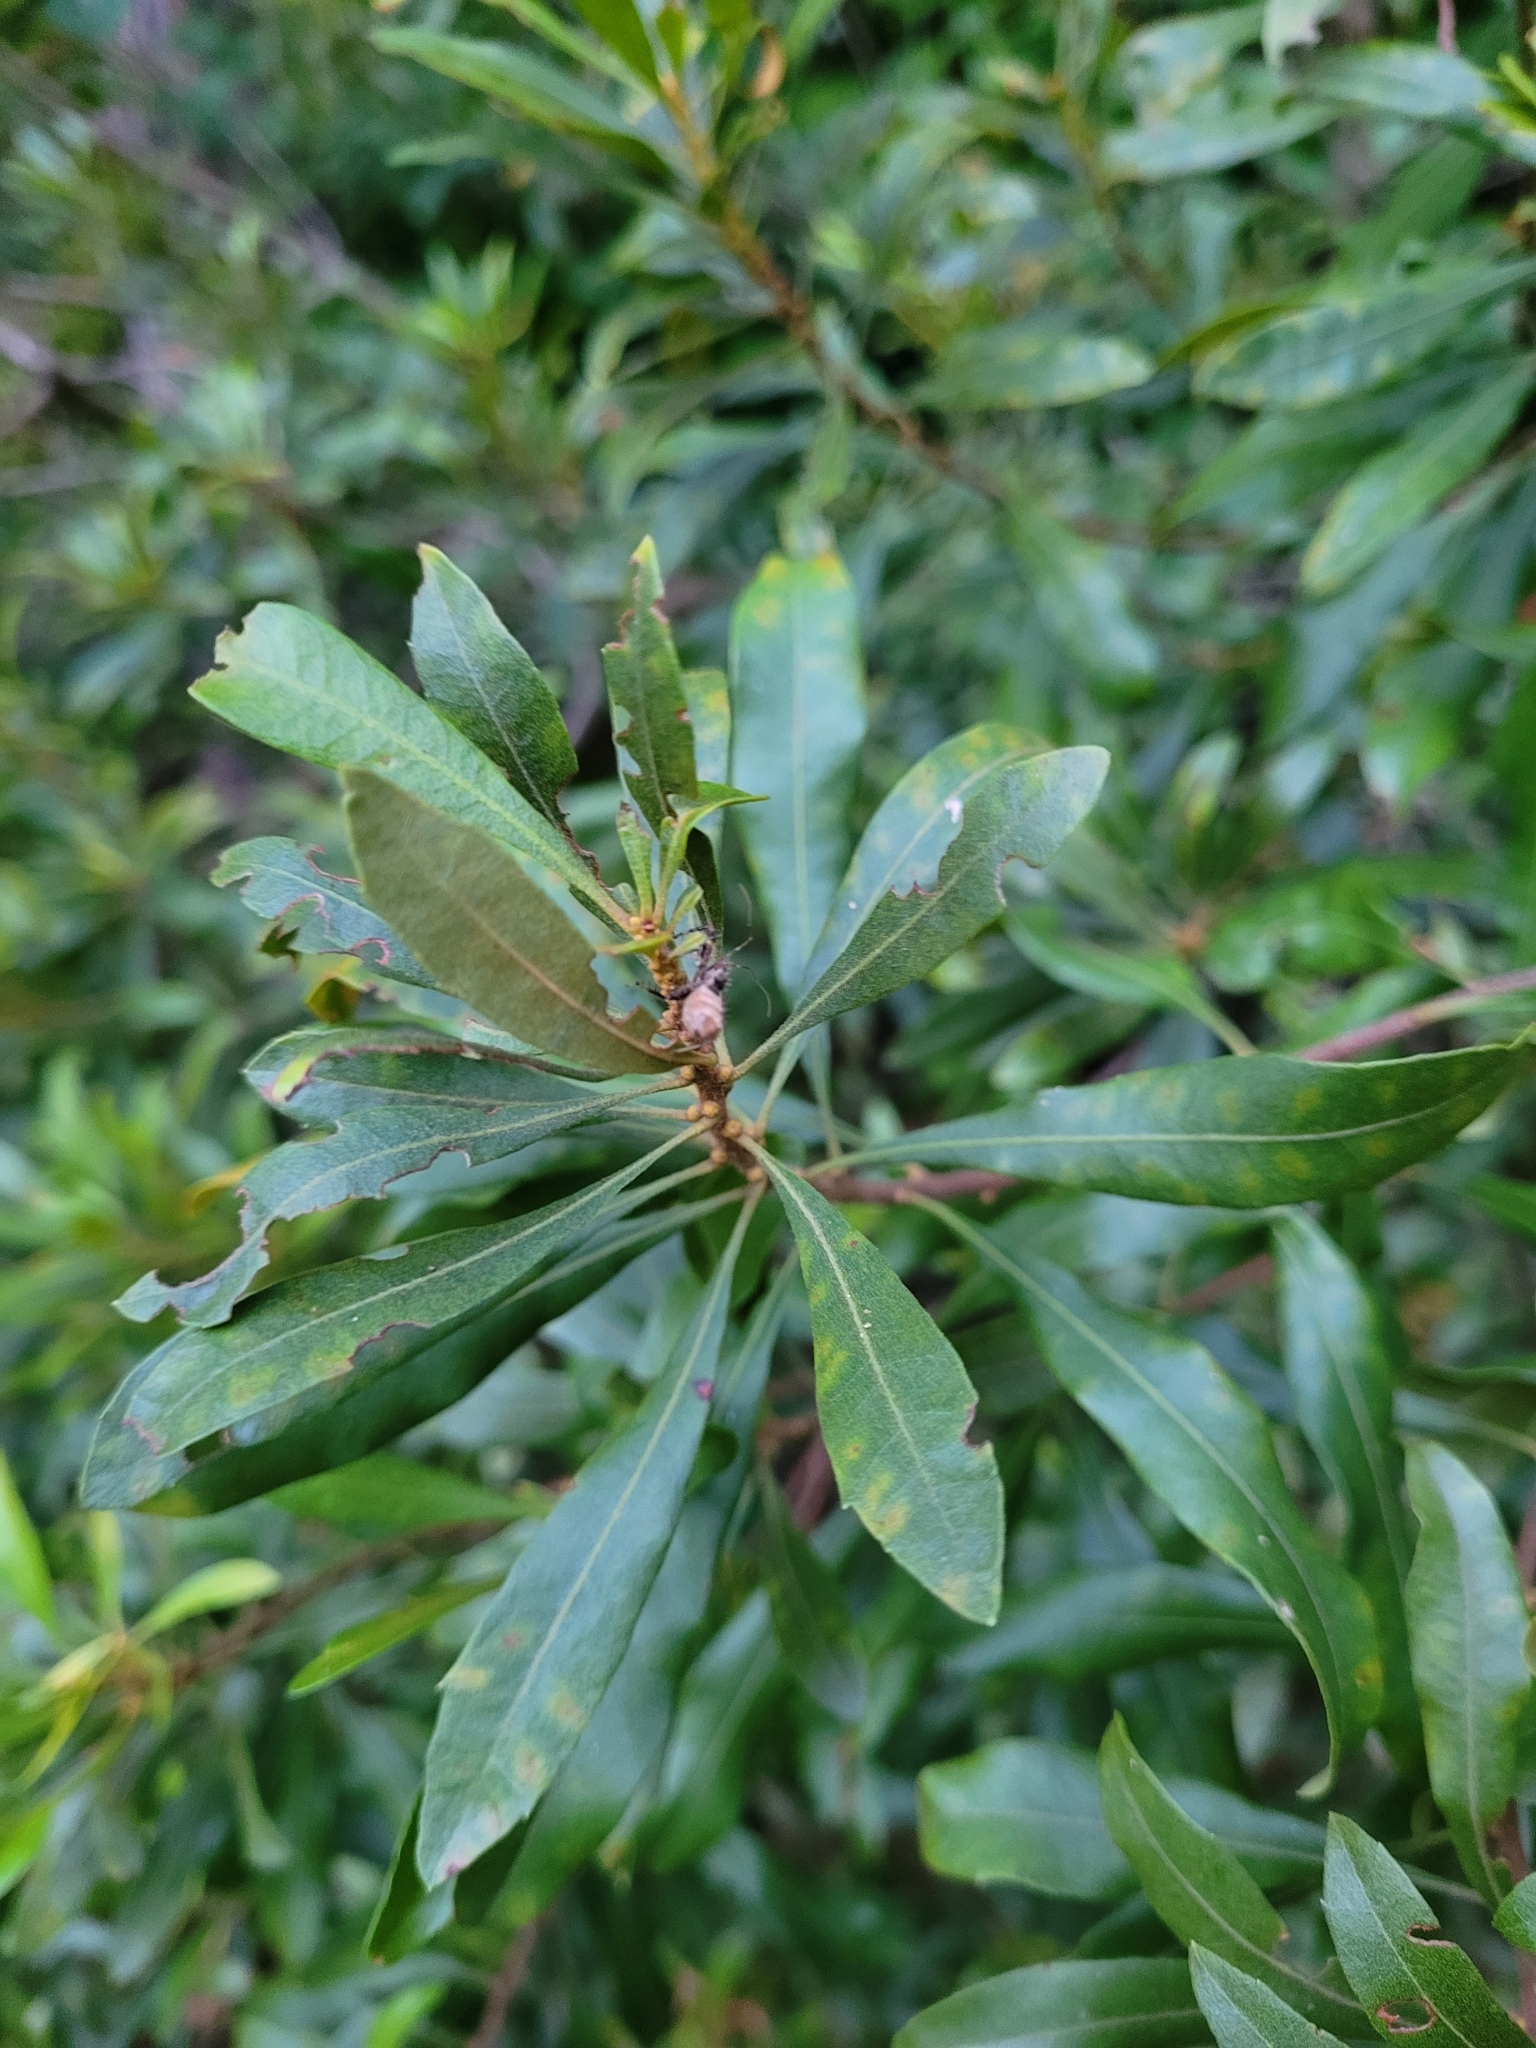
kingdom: Plantae
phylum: Tracheophyta
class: Magnoliopsida
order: Fagales
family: Myricaceae
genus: Morella
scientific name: Morella cerifera
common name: Wax myrtle
